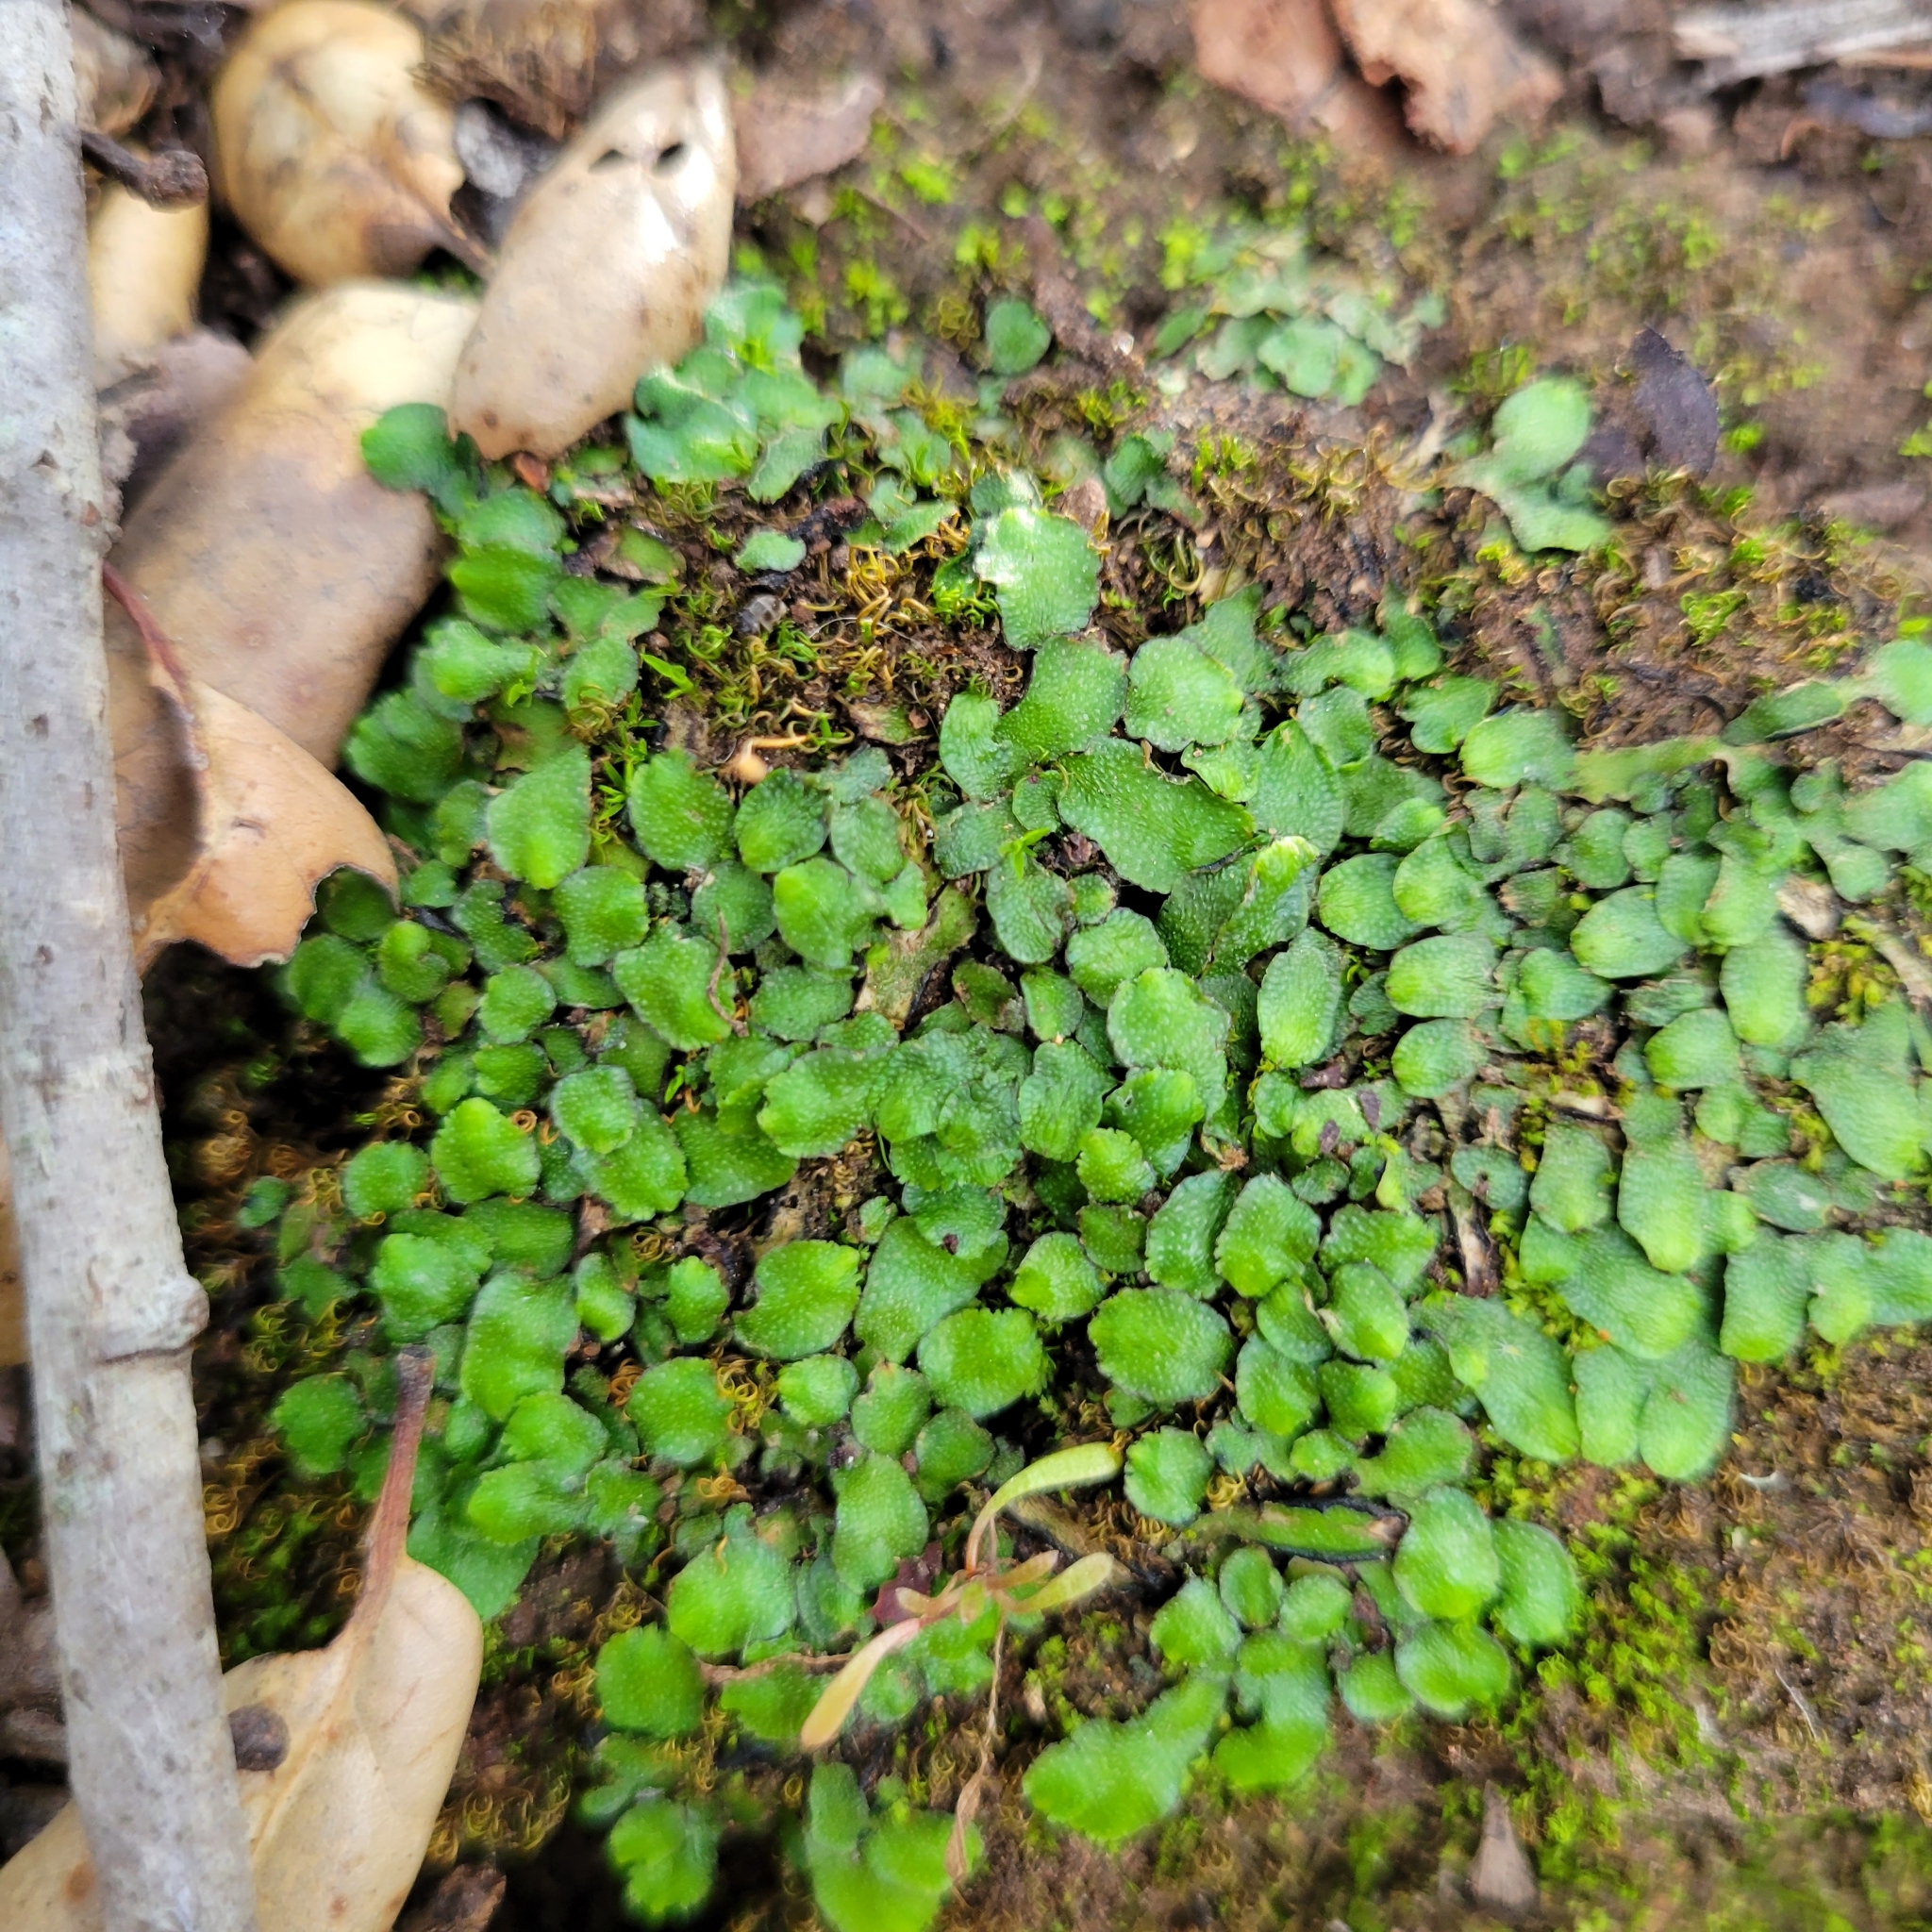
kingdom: Plantae
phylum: Marchantiophyta
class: Marchantiopsida
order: Marchantiales
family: Targioniaceae
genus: Targionia
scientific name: Targionia hypophylla
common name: Orobus-seed liverwort
